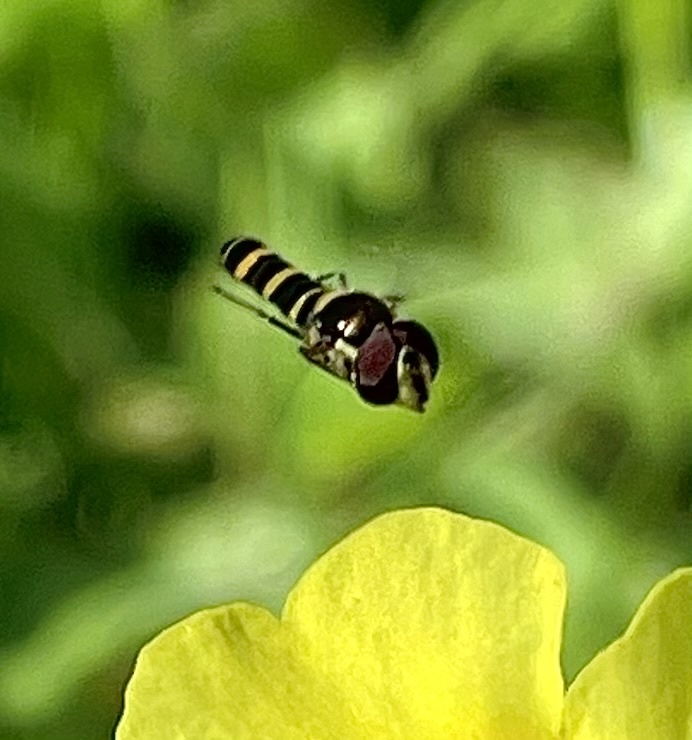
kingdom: Animalia
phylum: Arthropoda
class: Insecta
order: Diptera
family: Syrphidae
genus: Fazia
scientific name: Fazia micrura
